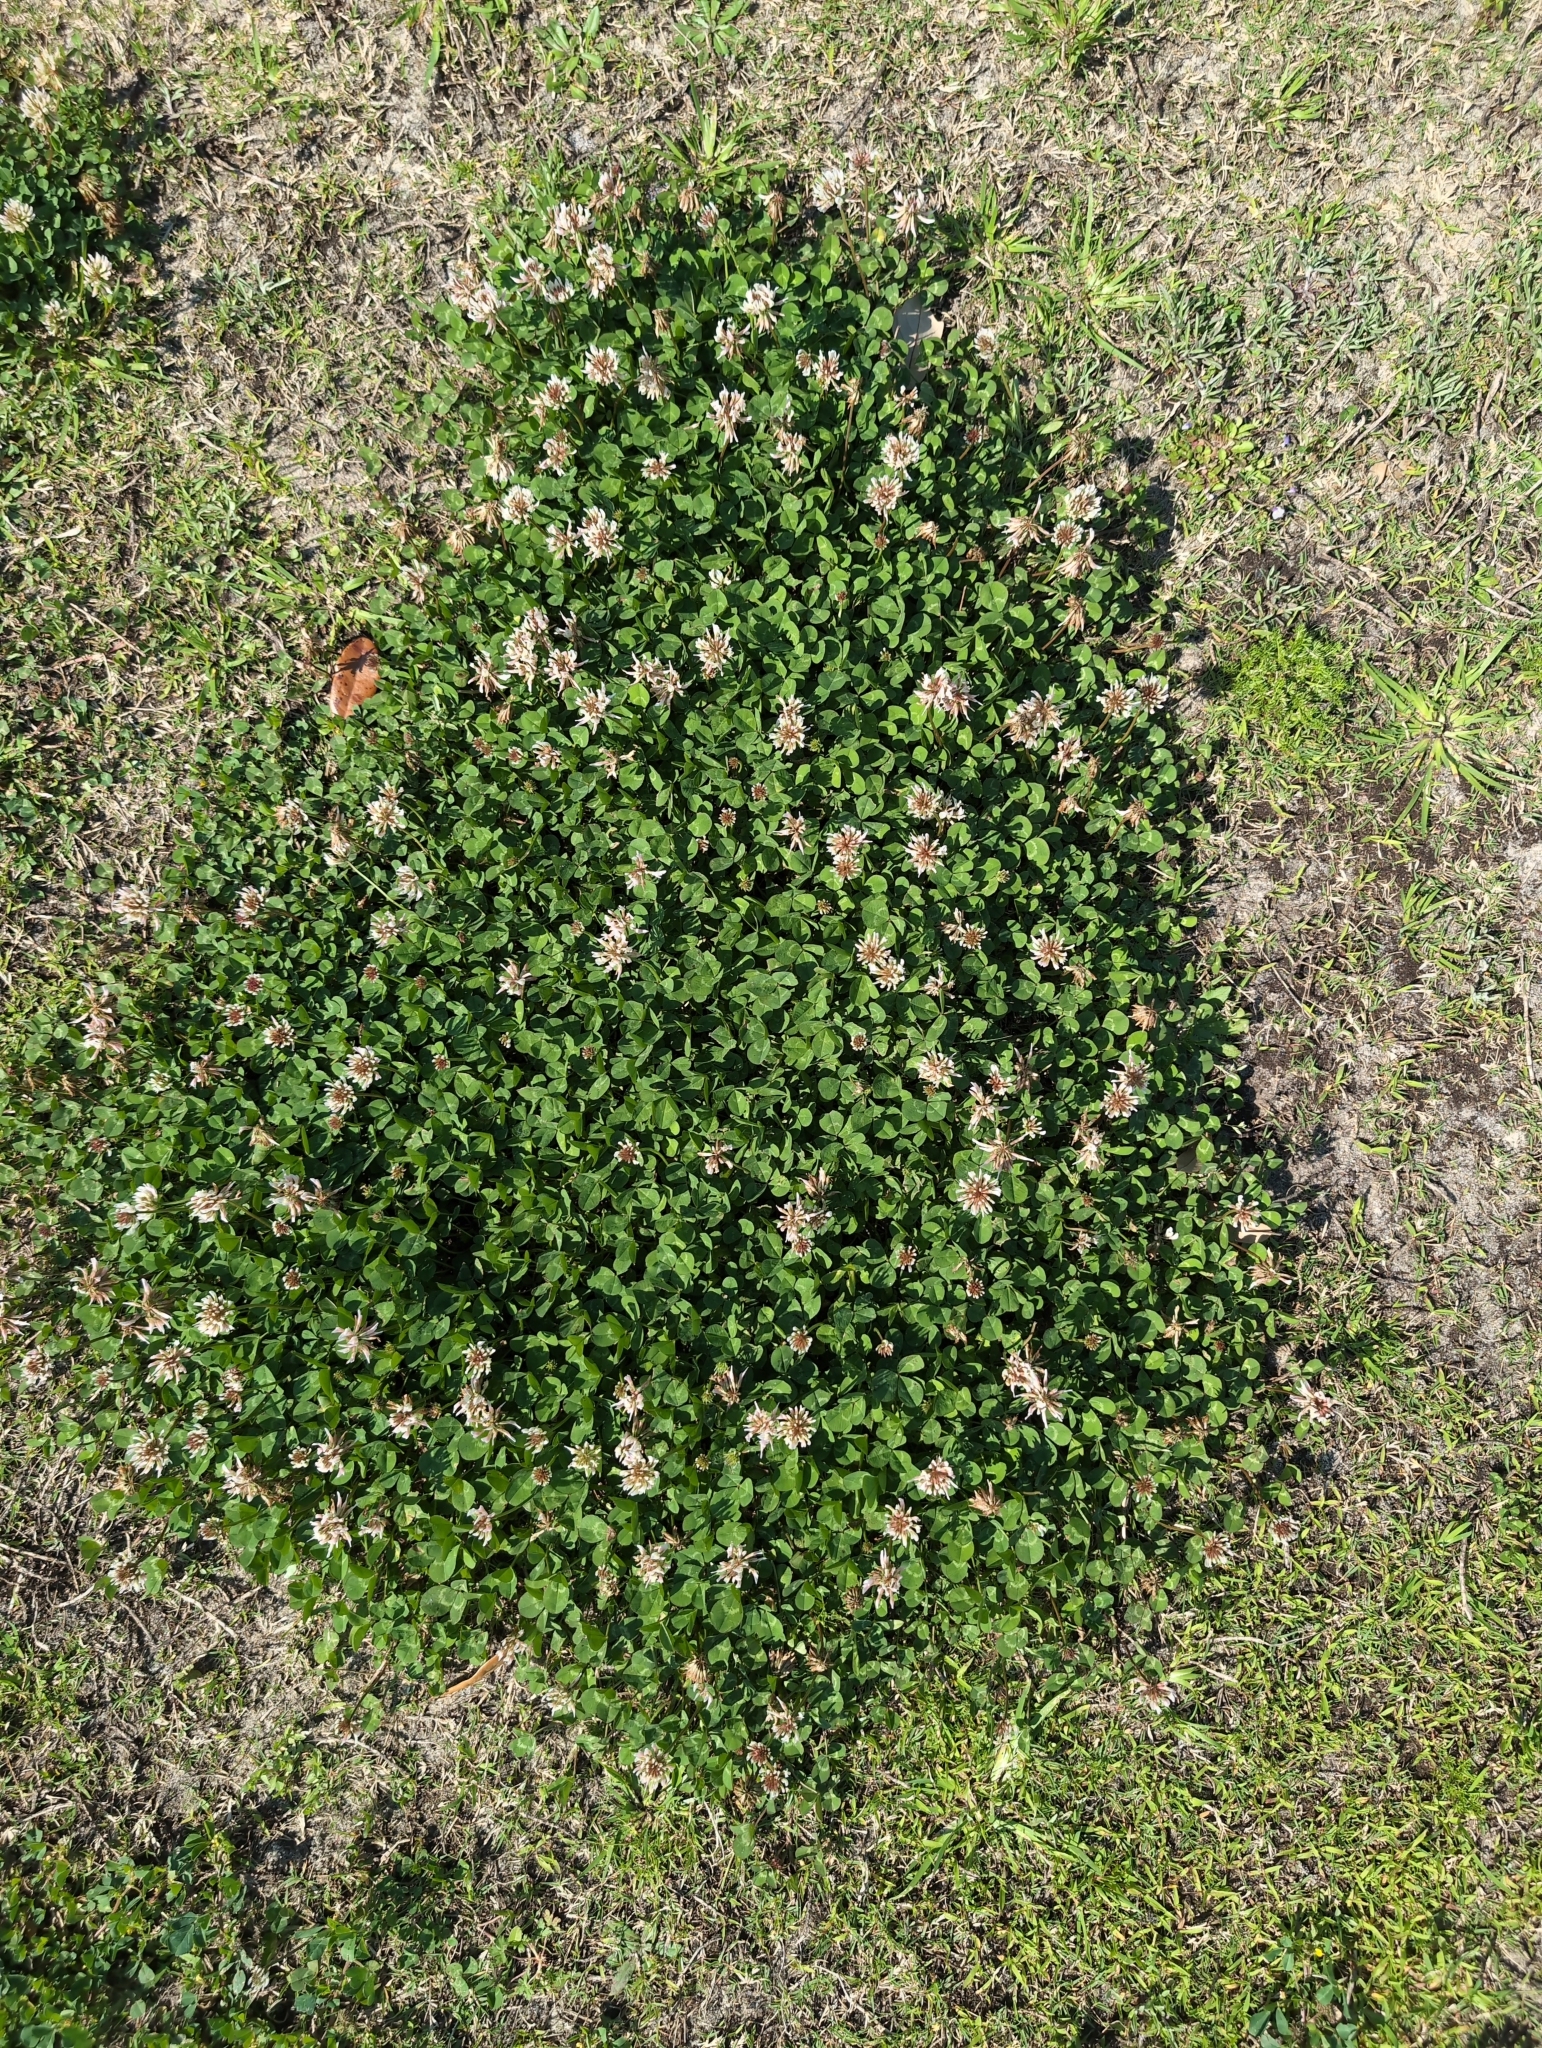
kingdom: Plantae
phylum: Tracheophyta
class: Magnoliopsida
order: Fabales
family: Fabaceae
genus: Trifolium
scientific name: Trifolium repens
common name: White clover
